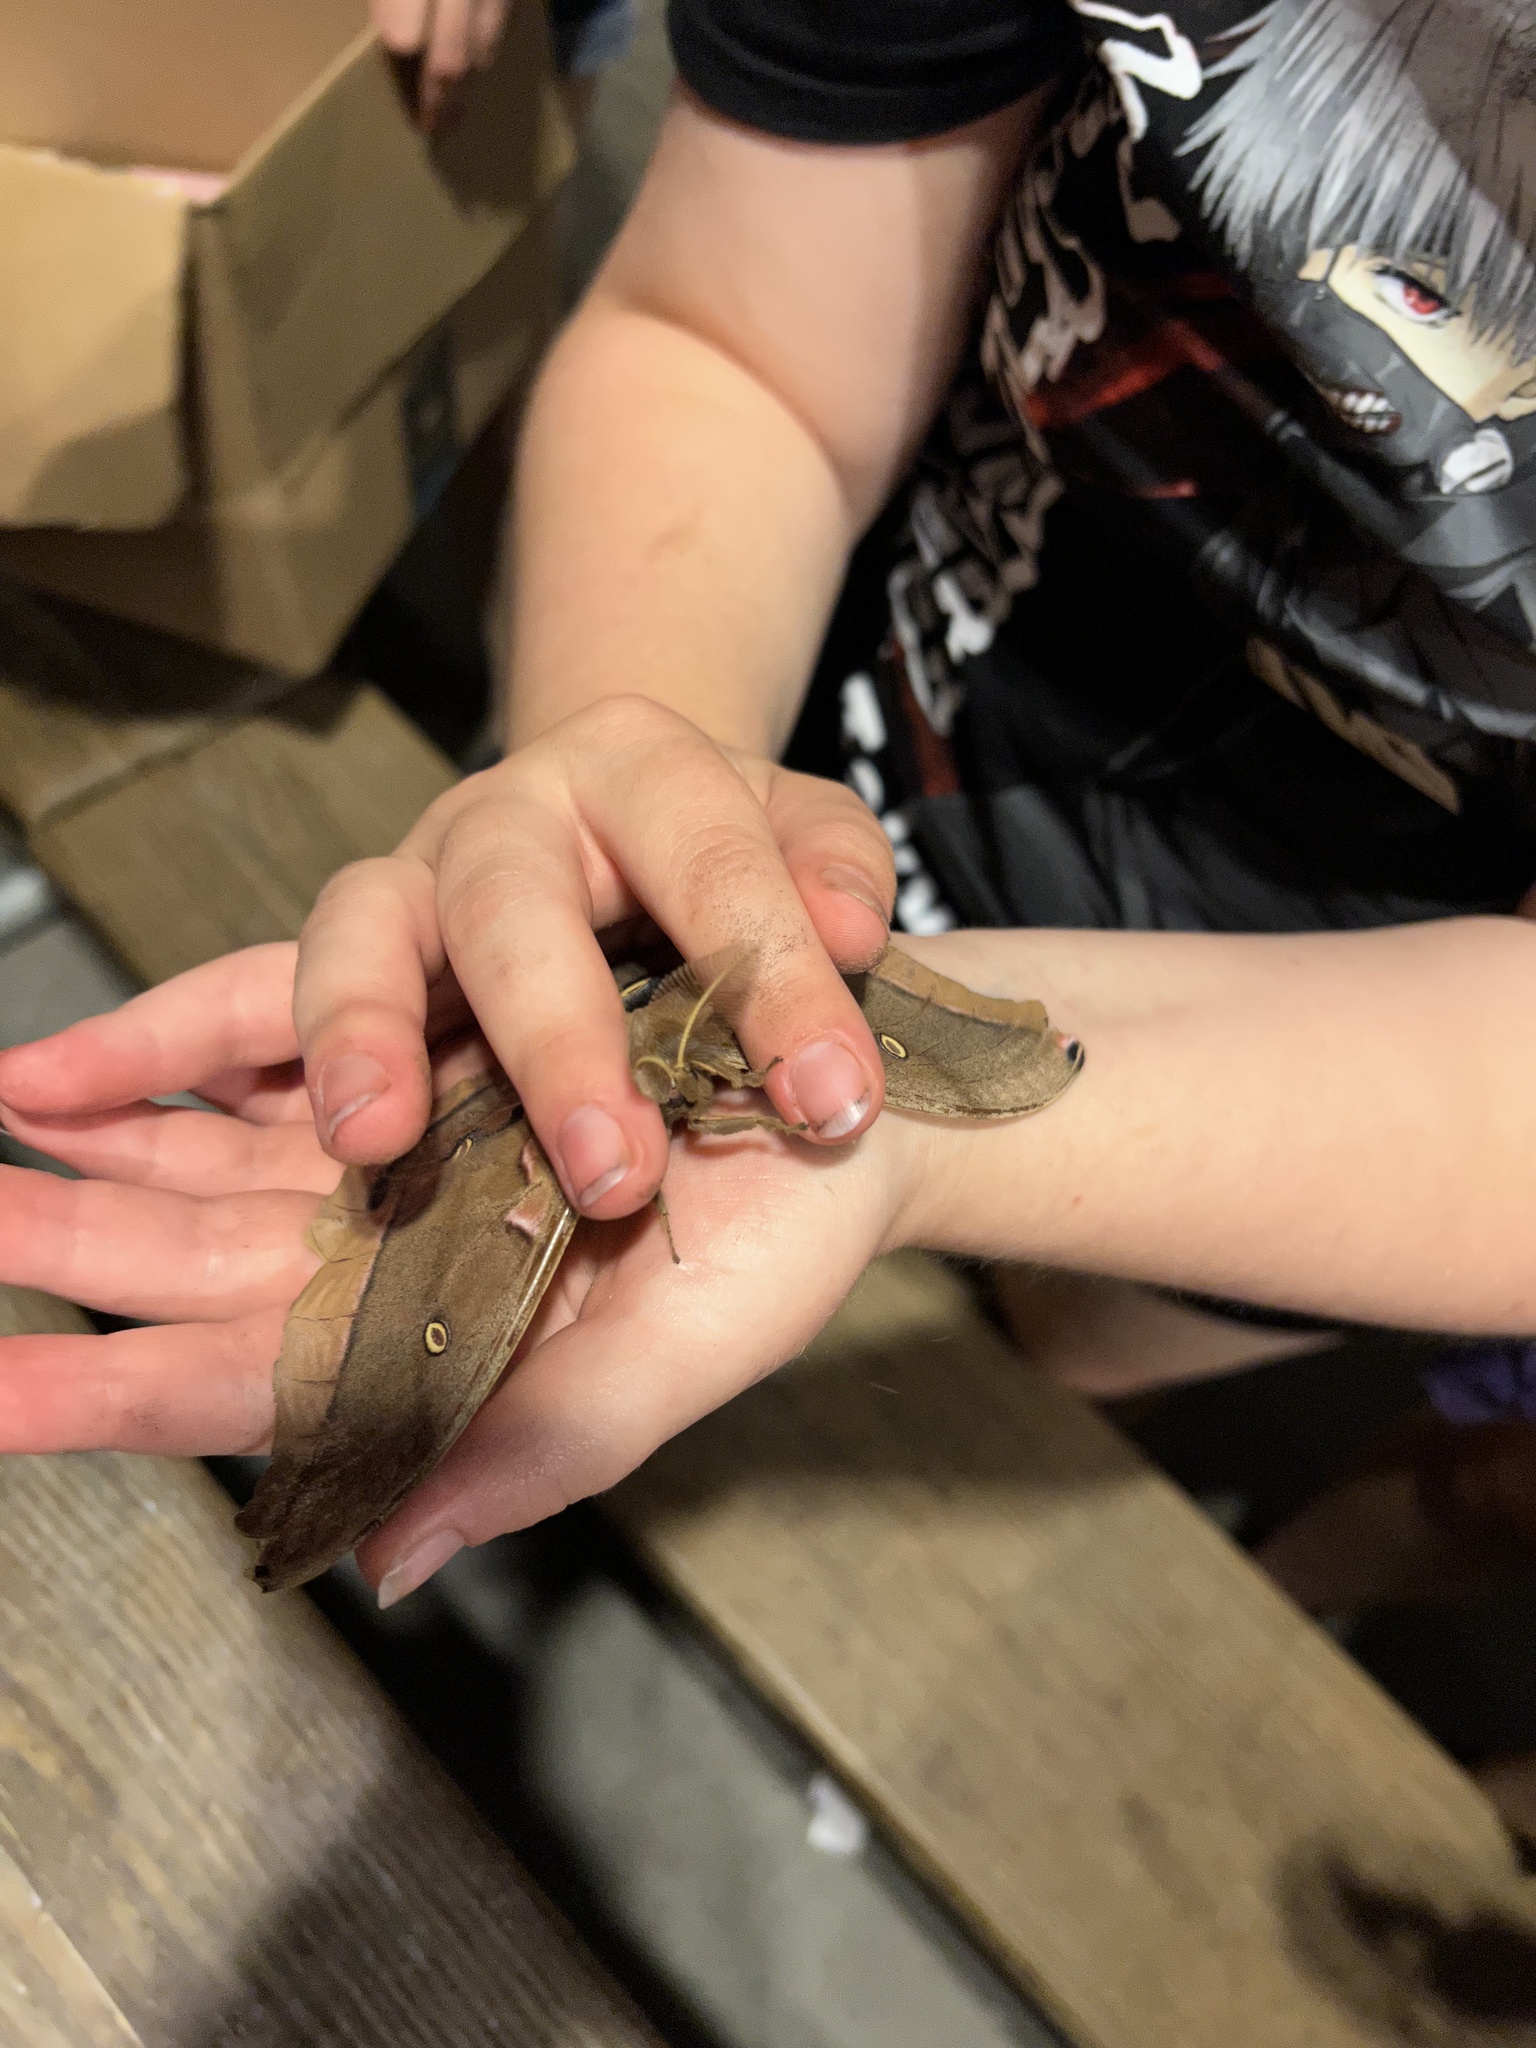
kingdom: Animalia
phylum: Arthropoda
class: Insecta
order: Lepidoptera
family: Saturniidae
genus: Antheraea
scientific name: Antheraea polyphemus
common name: Polyphemus moth
